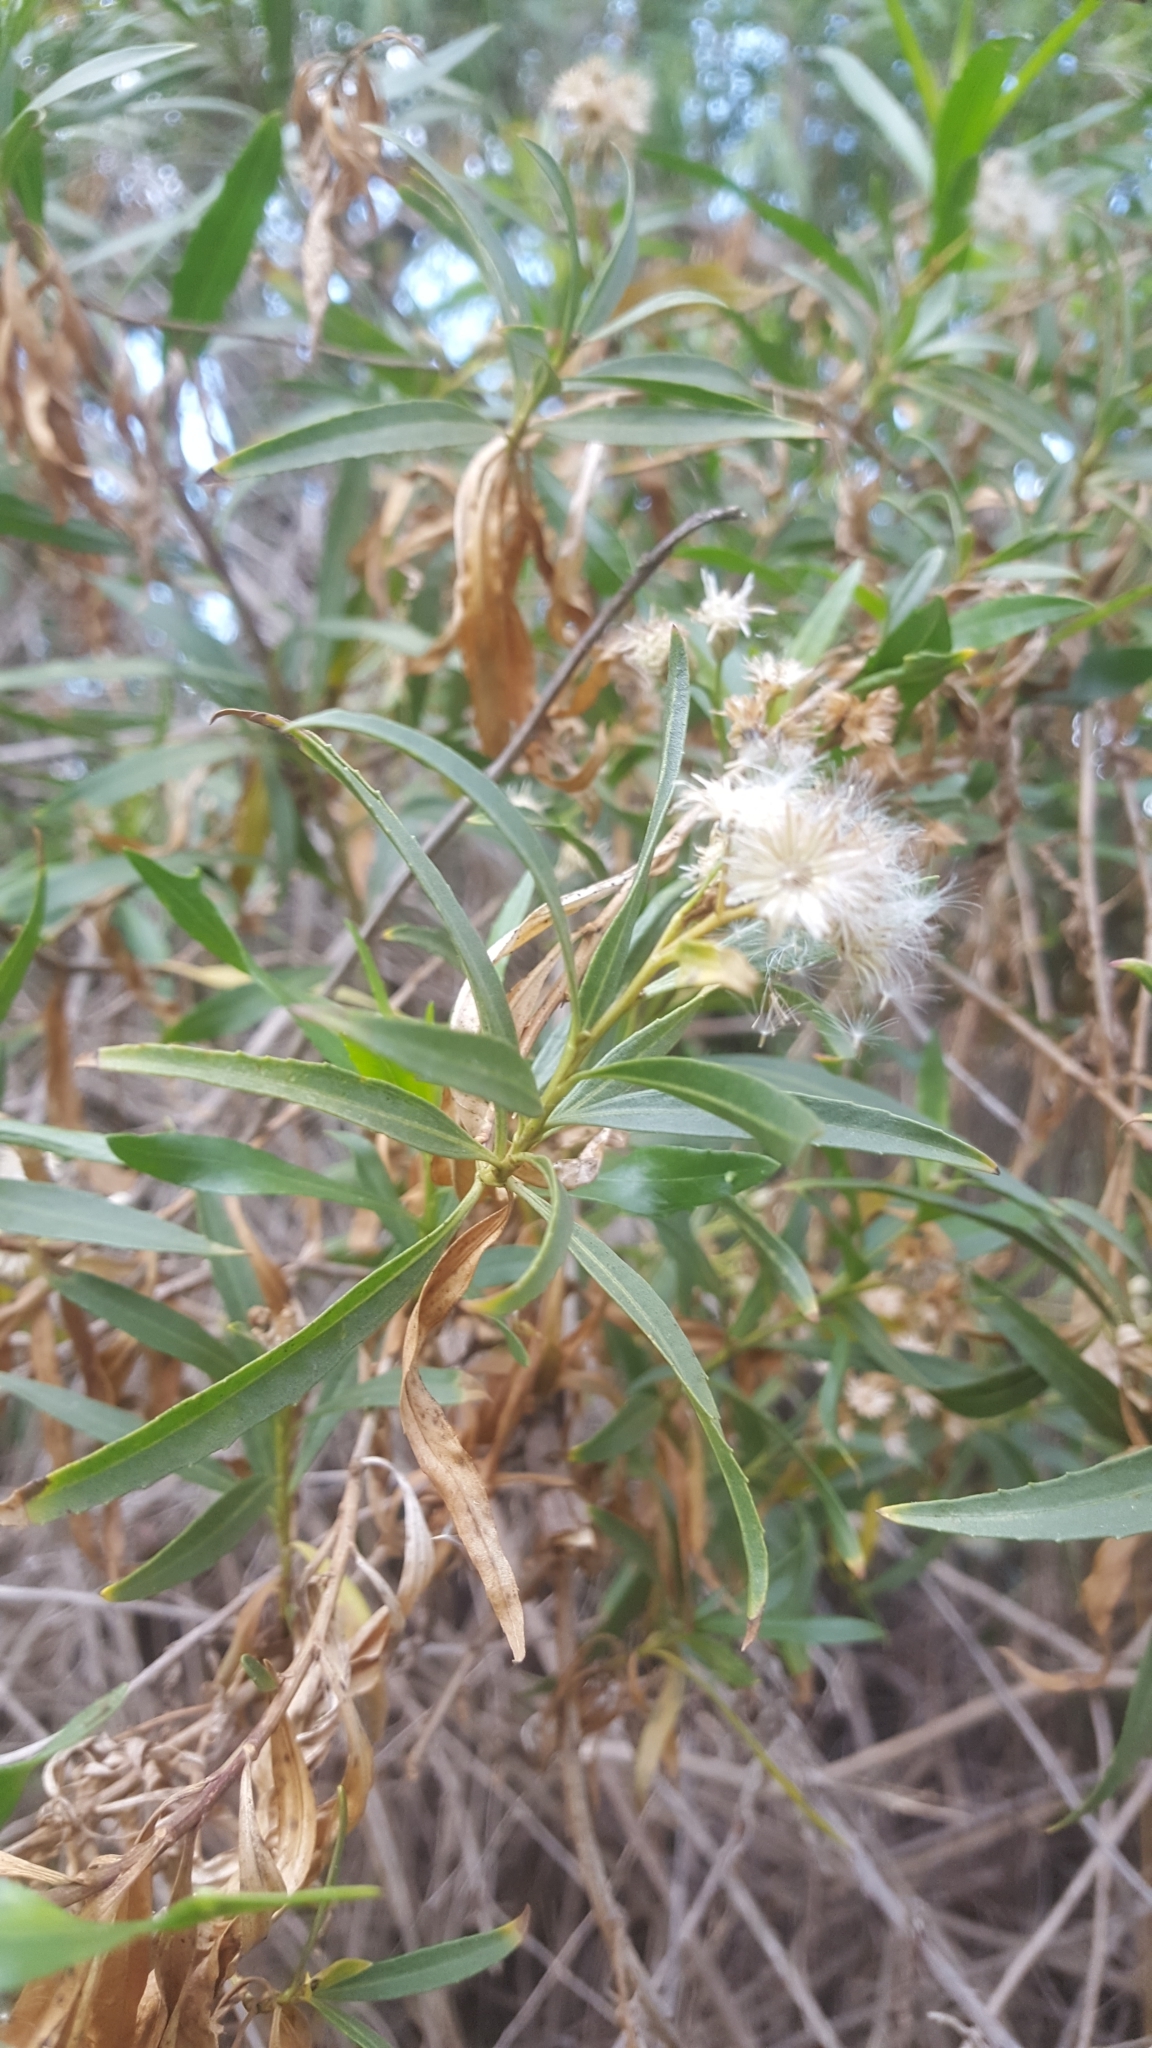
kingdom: Plantae
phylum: Tracheophyta
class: Magnoliopsida
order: Asterales
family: Asteraceae
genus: Baccharis
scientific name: Baccharis salicifolia
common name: Sticky baccharis
